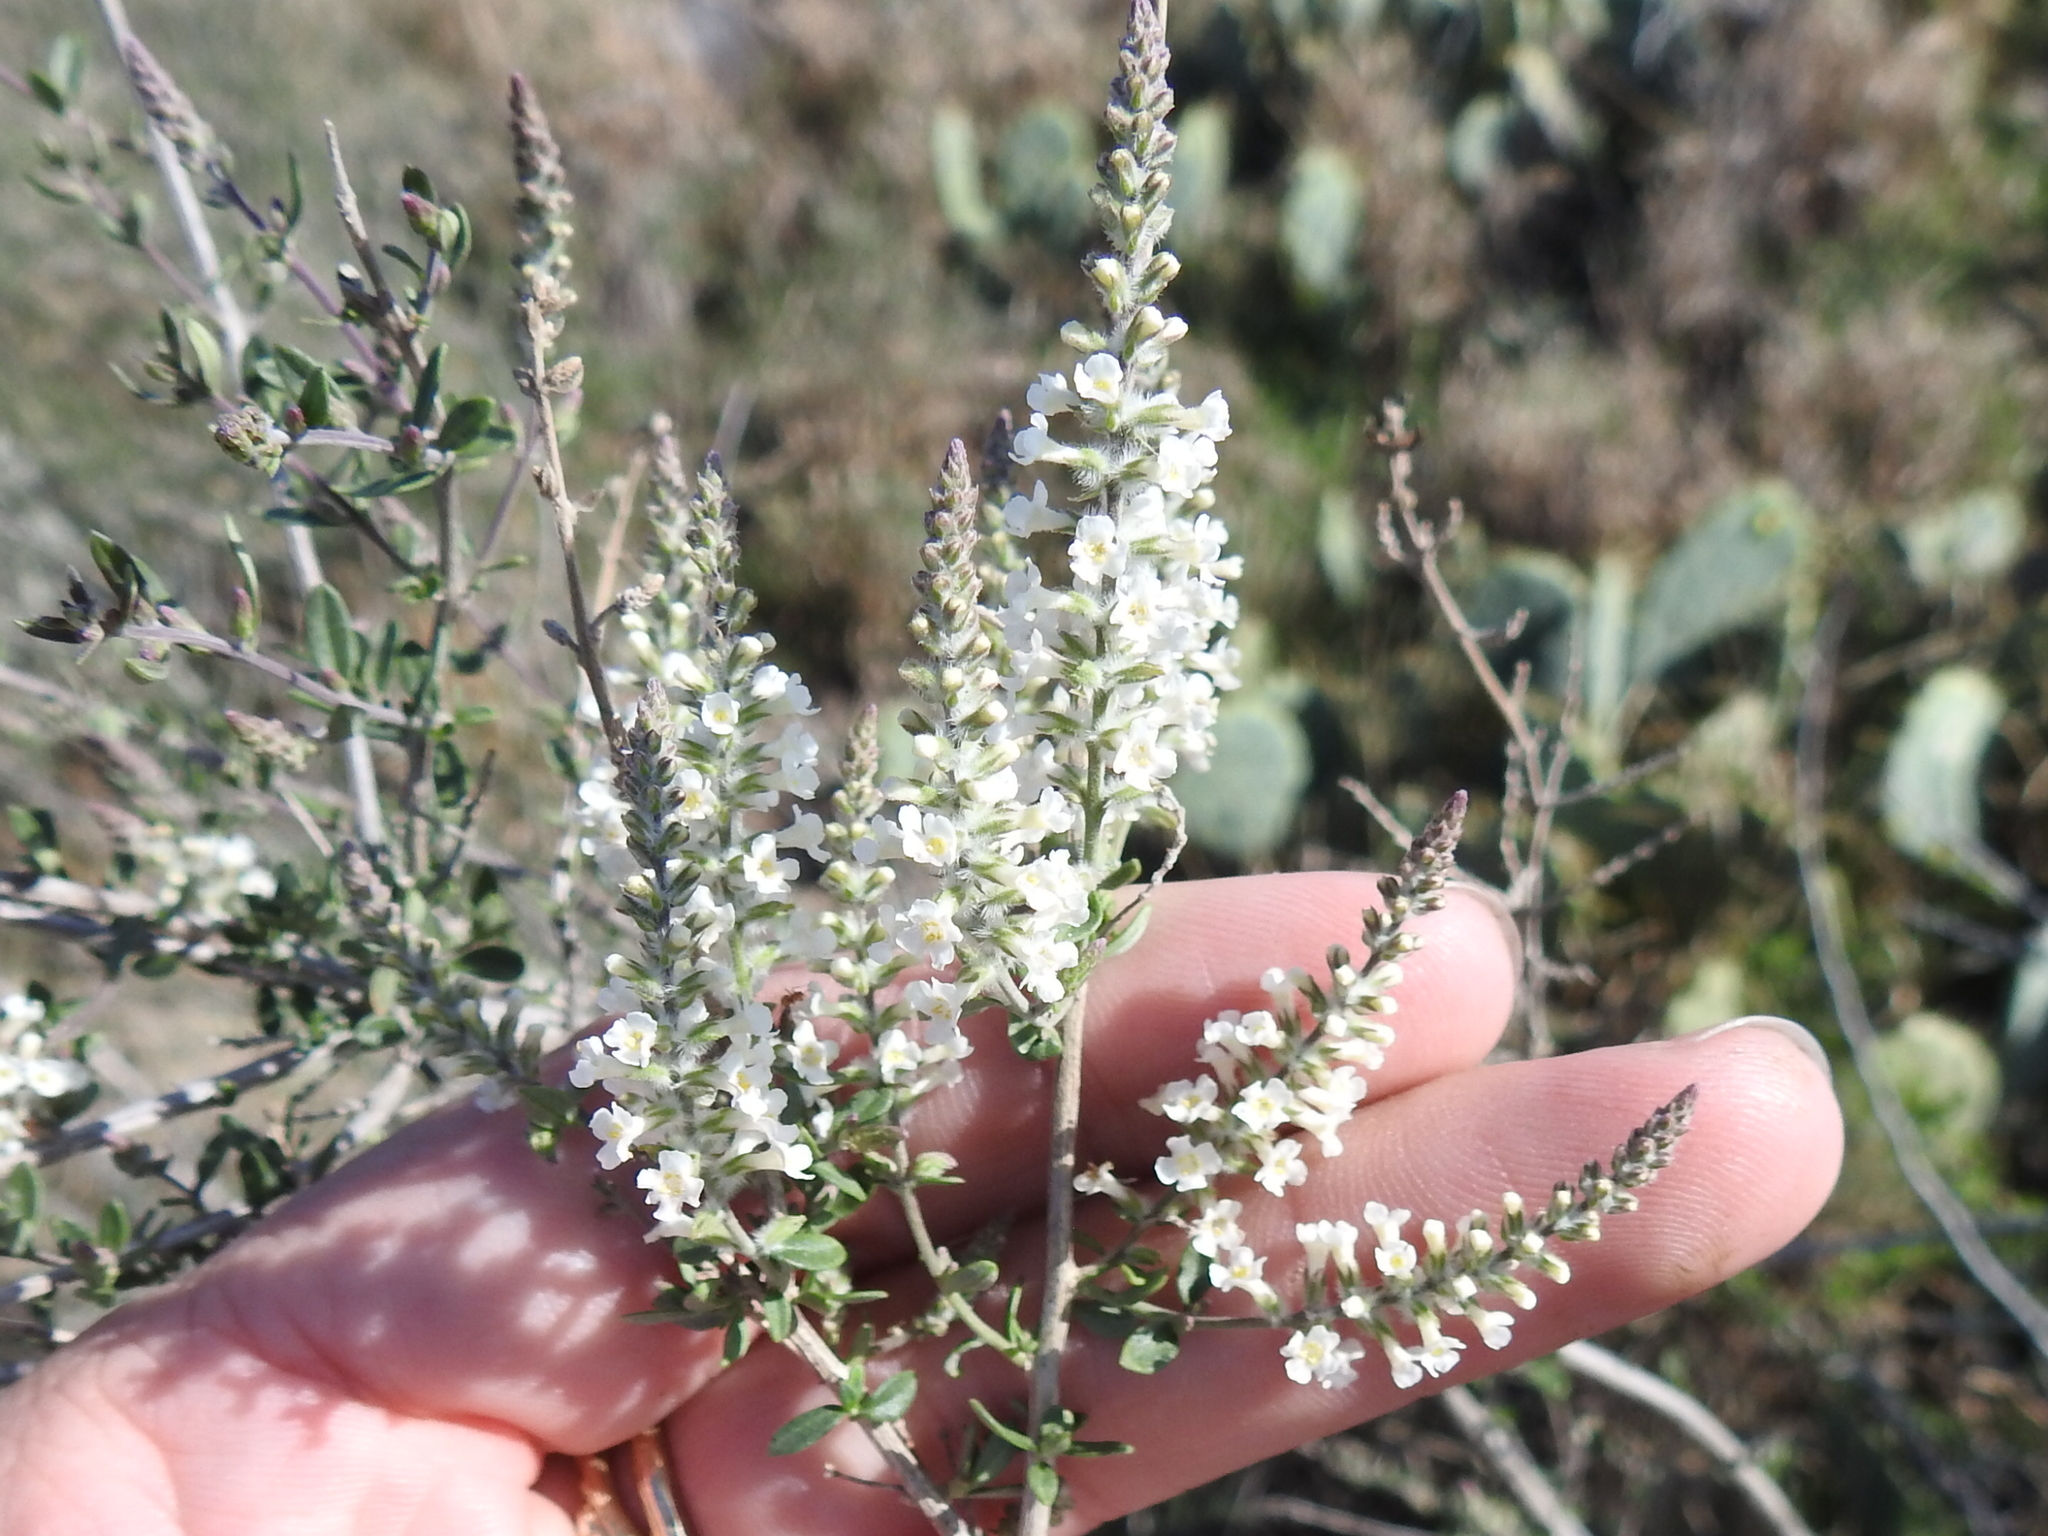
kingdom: Plantae
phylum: Tracheophyta
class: Magnoliopsida
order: Lamiales
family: Verbenaceae
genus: Aloysia
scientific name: Aloysia gratissima
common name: Common bee-brush
